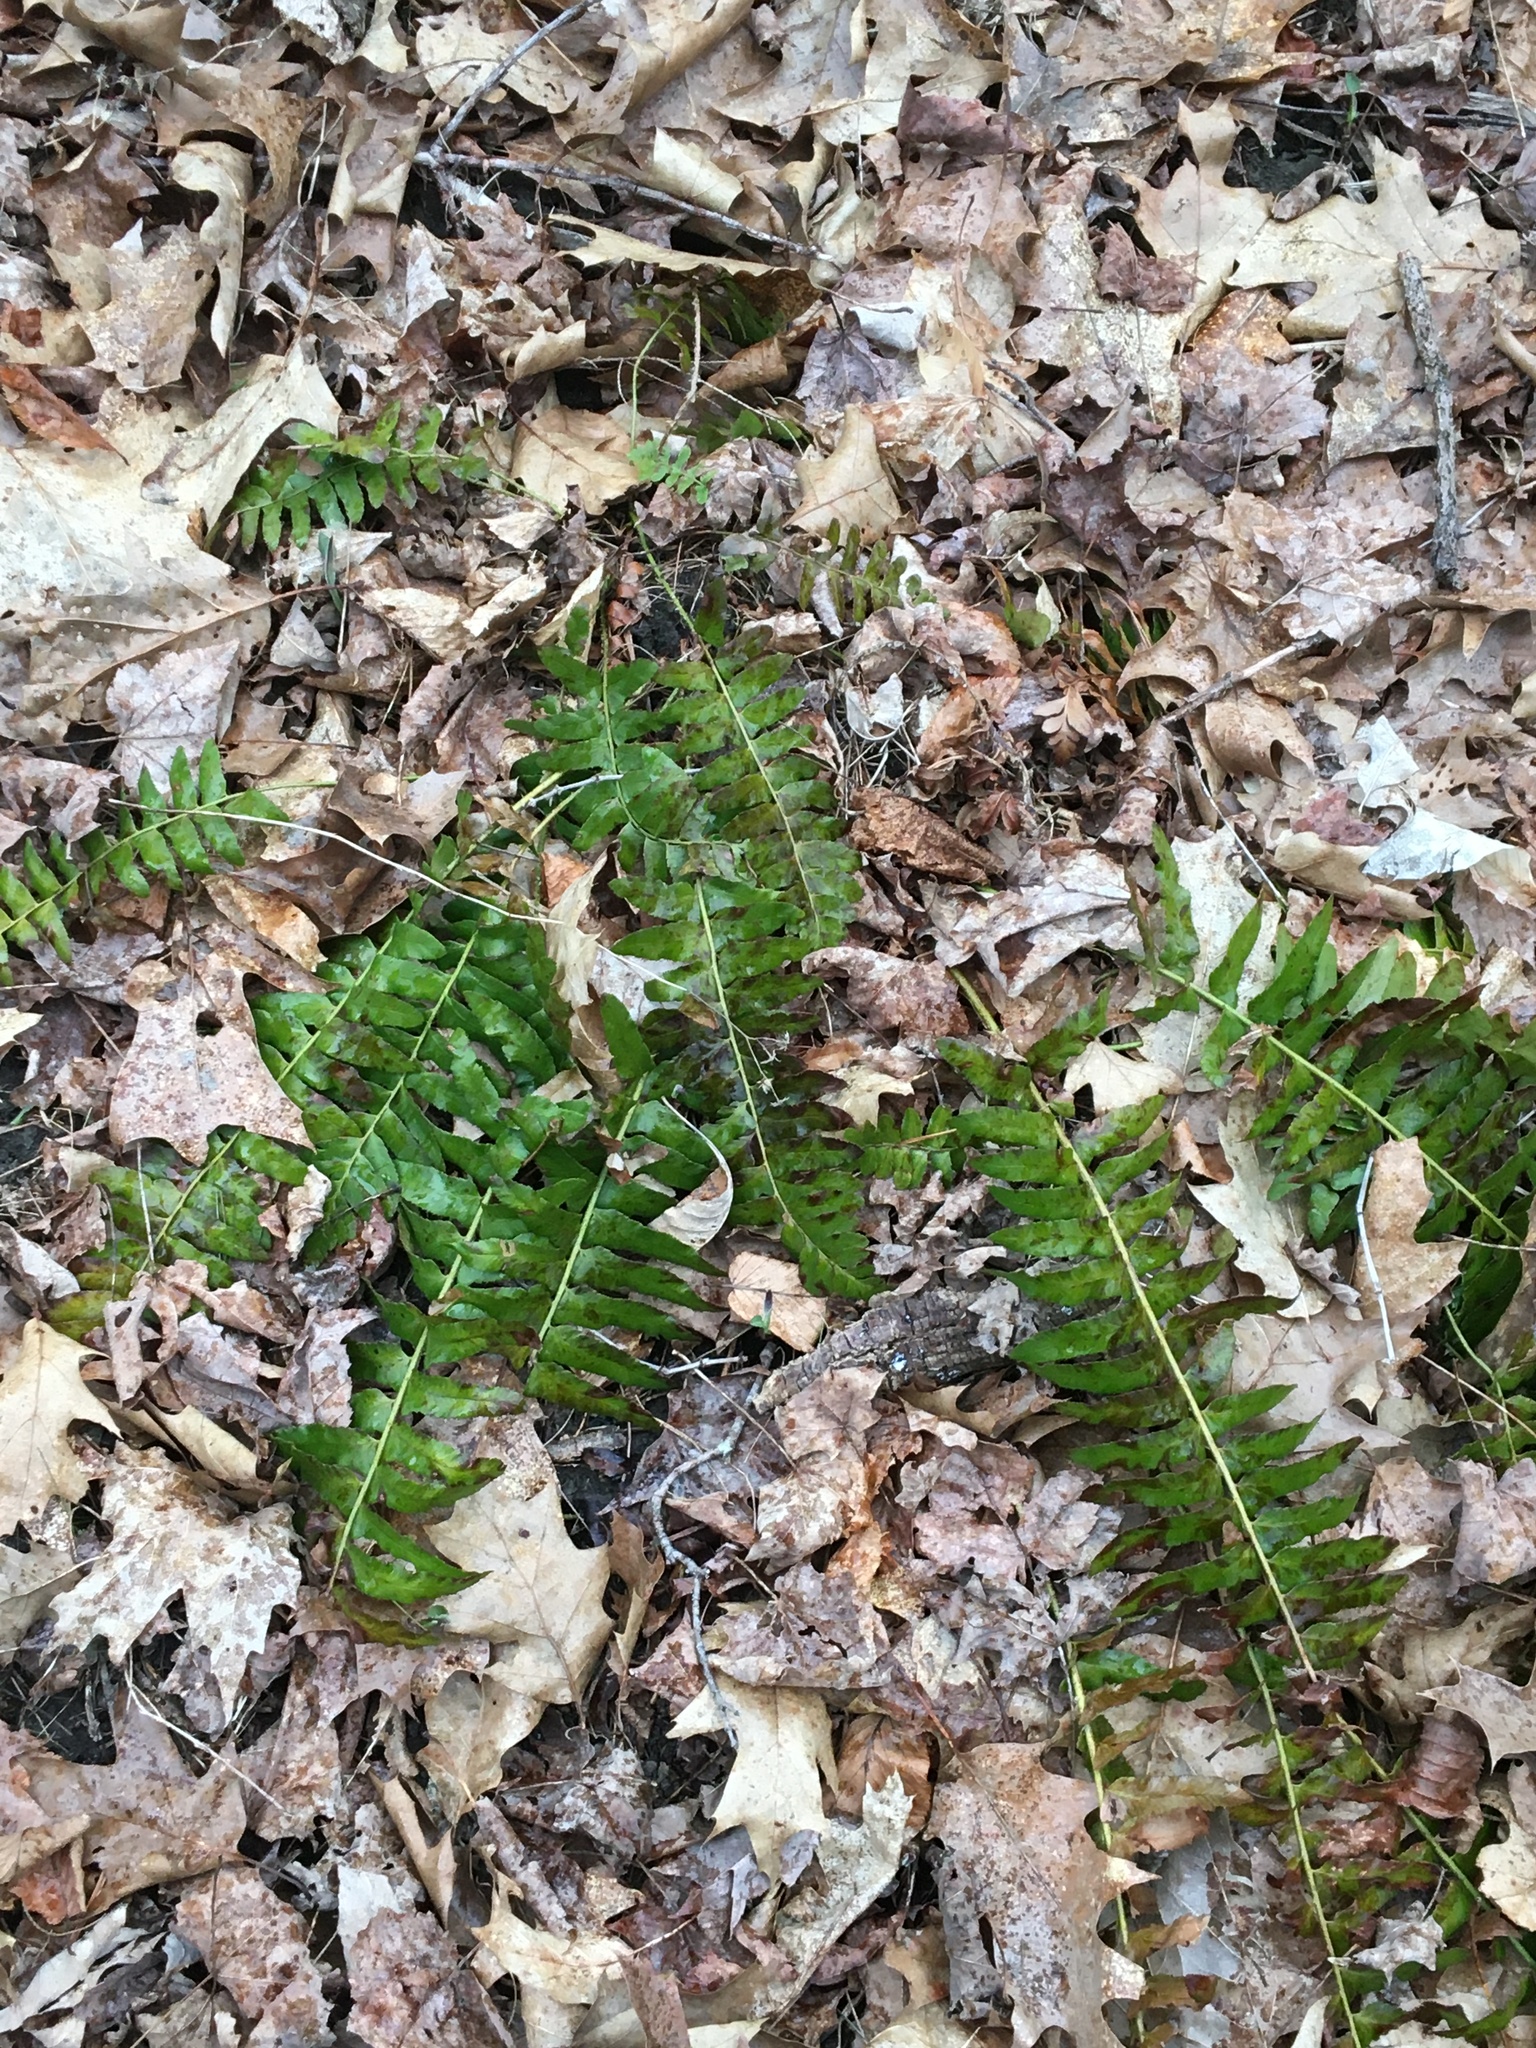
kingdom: Plantae
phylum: Tracheophyta
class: Polypodiopsida
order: Polypodiales
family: Dryopteridaceae
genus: Polystichum
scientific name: Polystichum acrostichoides
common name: Christmas fern
